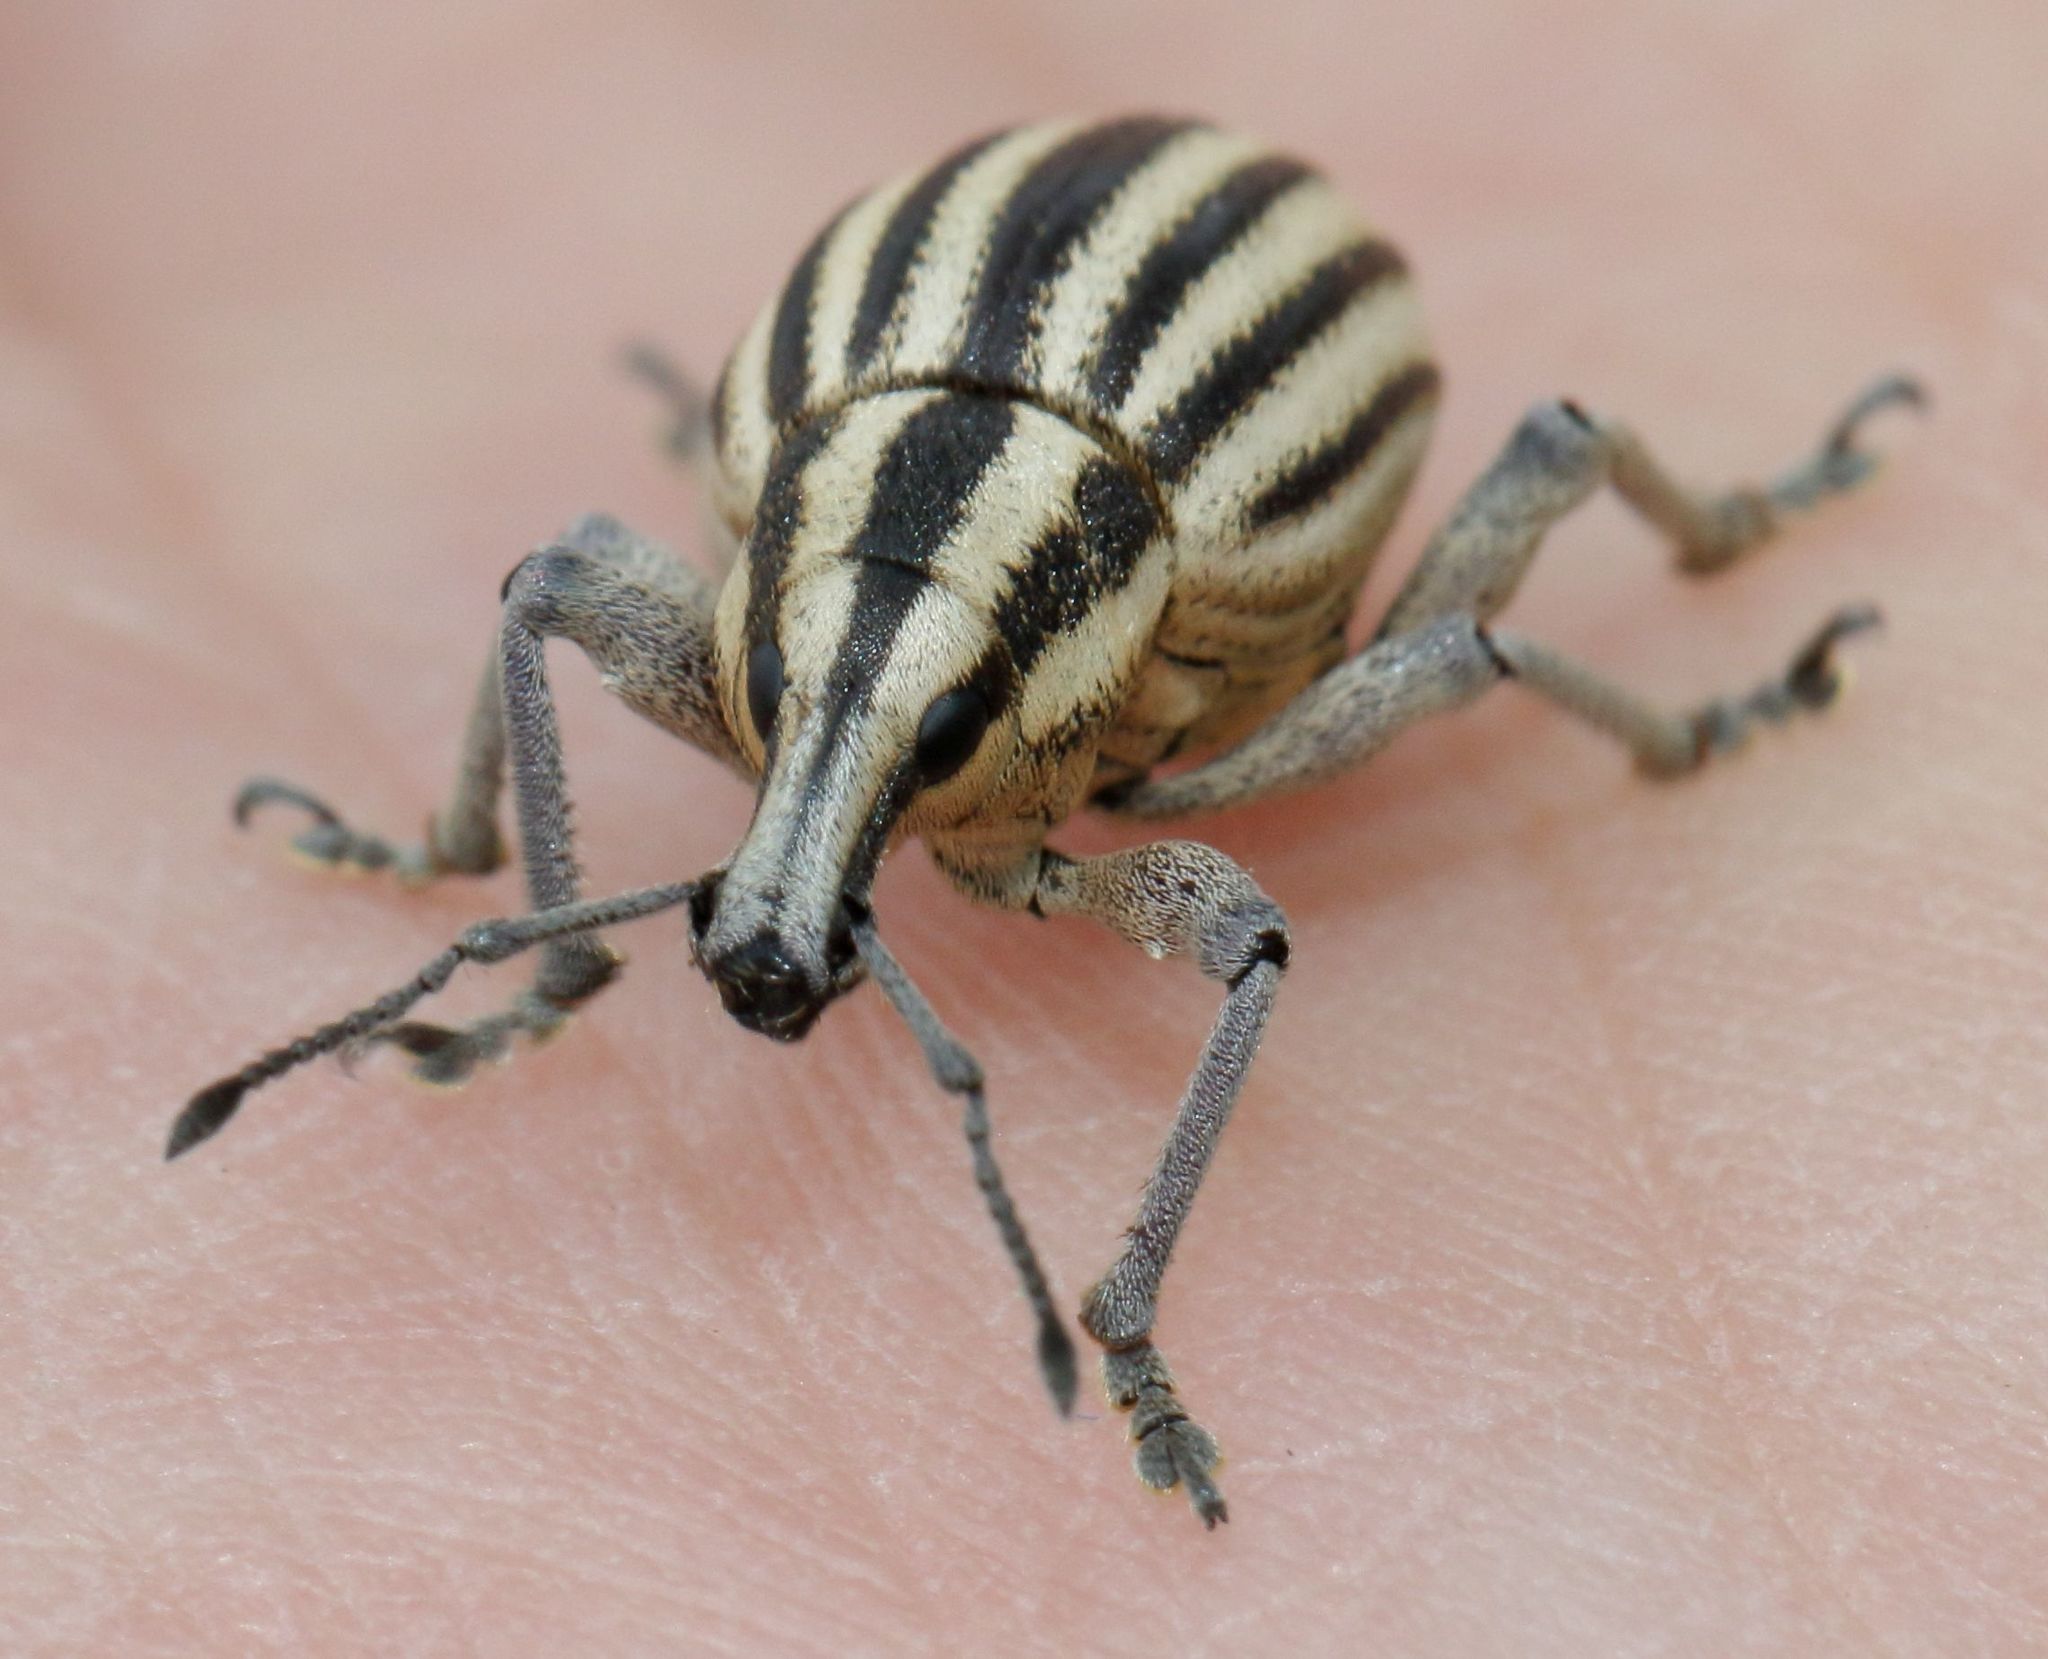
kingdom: Animalia
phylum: Arthropoda
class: Insecta
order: Coleoptera
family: Curculionidae
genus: Eremnus
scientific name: Eremnus lineatus
